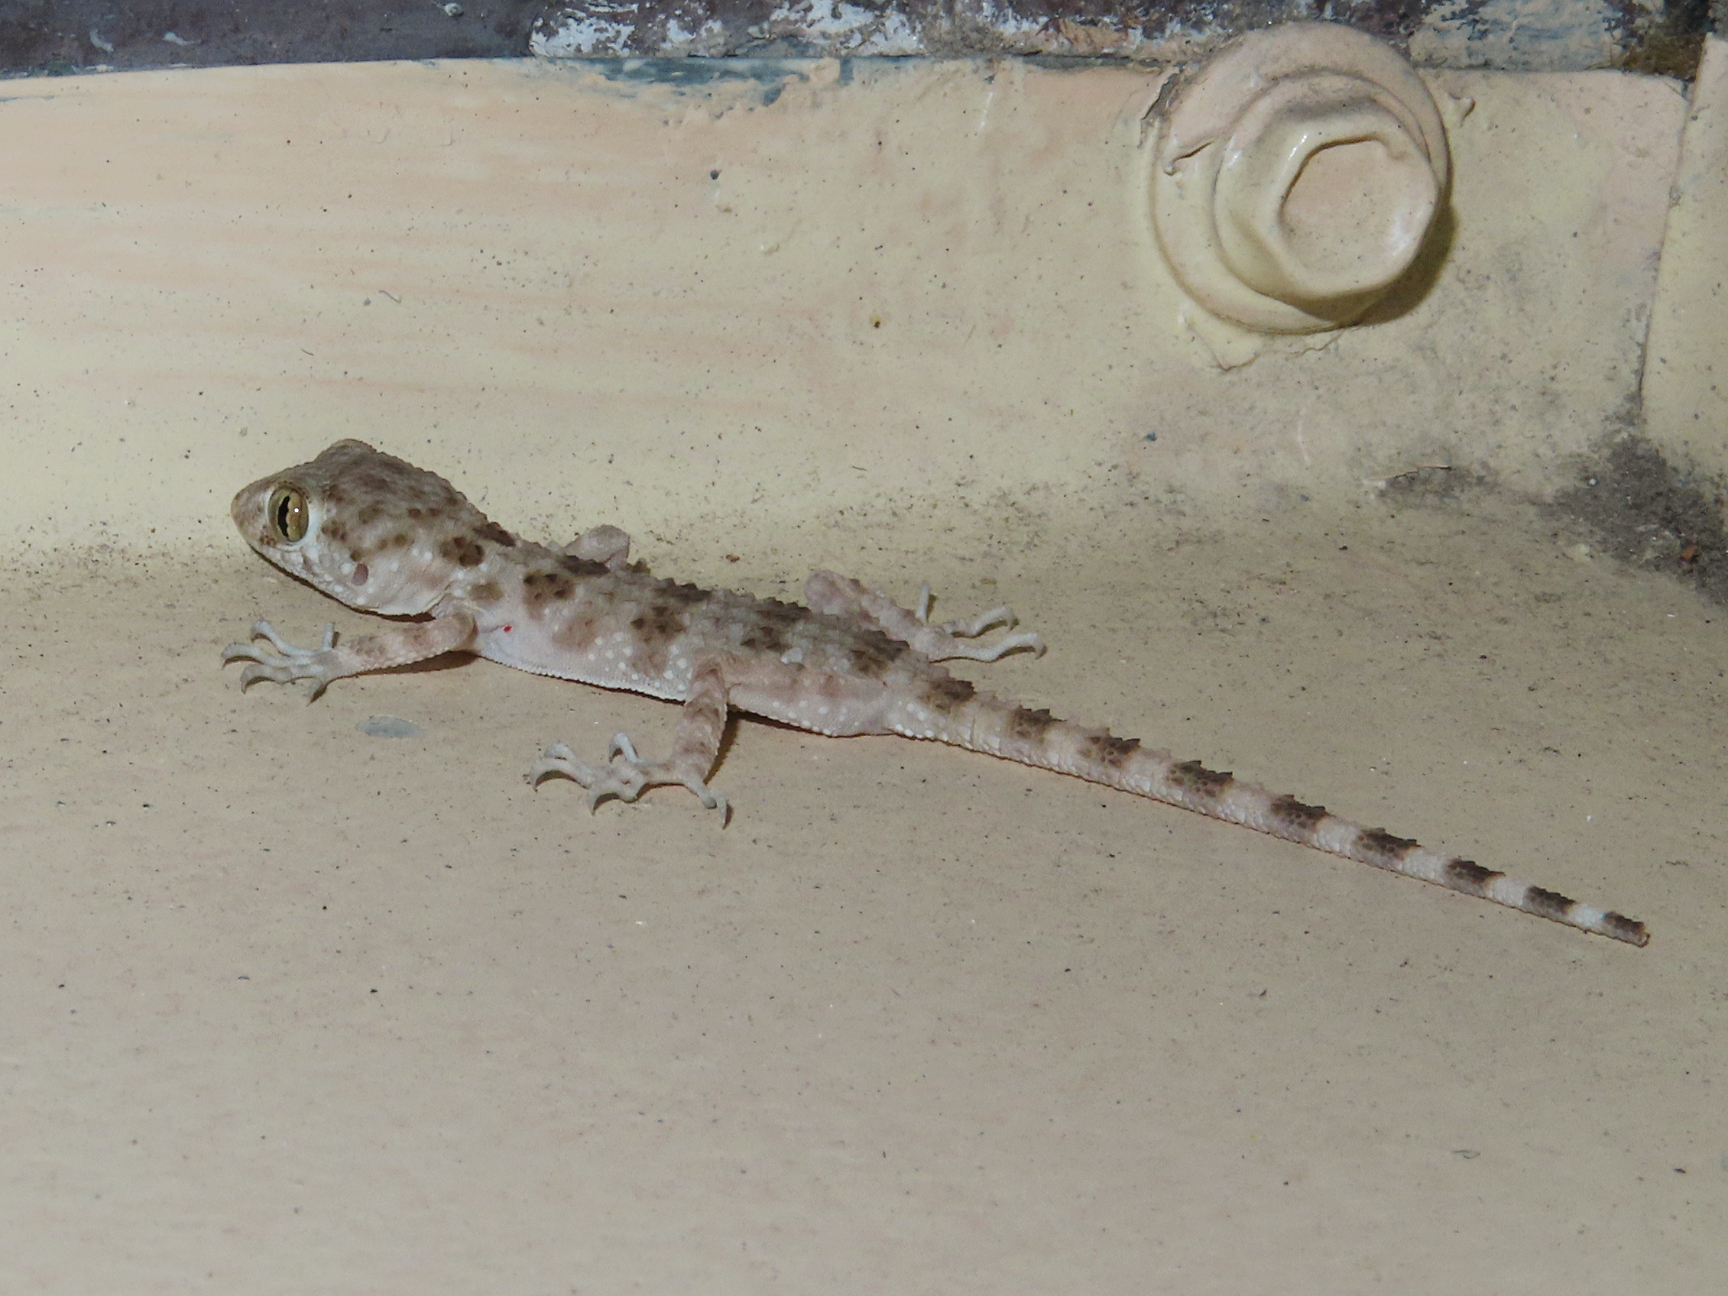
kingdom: Animalia
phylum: Chordata
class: Squamata
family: Gekkonidae
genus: Tenuidactylus
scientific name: Tenuidactylus caspius
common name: Caspian bent-toed gecko
